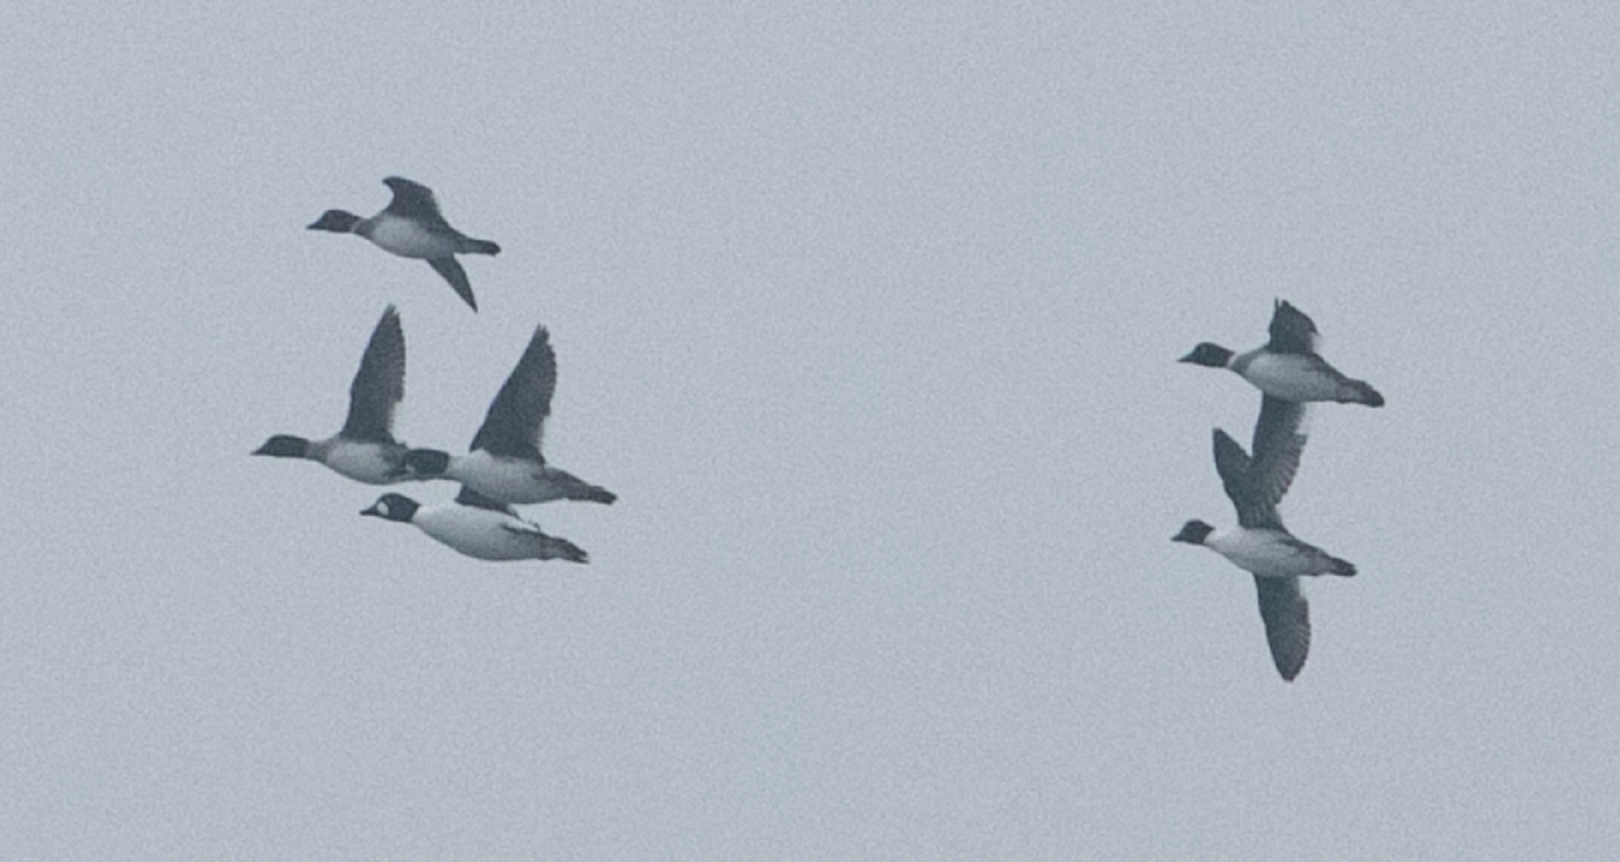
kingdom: Animalia
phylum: Chordata
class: Aves
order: Anseriformes
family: Anatidae
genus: Bucephala
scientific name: Bucephala clangula
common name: Common goldeneye
